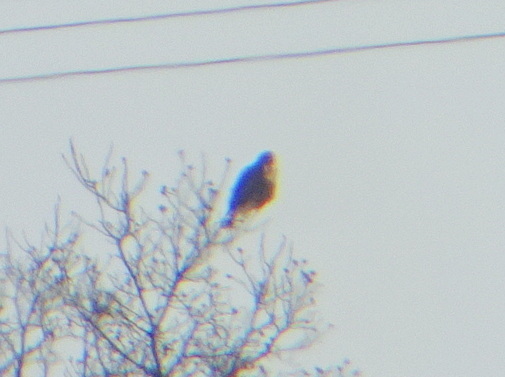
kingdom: Animalia
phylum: Chordata
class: Aves
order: Accipitriformes
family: Accipitridae
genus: Buteo
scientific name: Buteo lagopus
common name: Rough-legged buzzard
